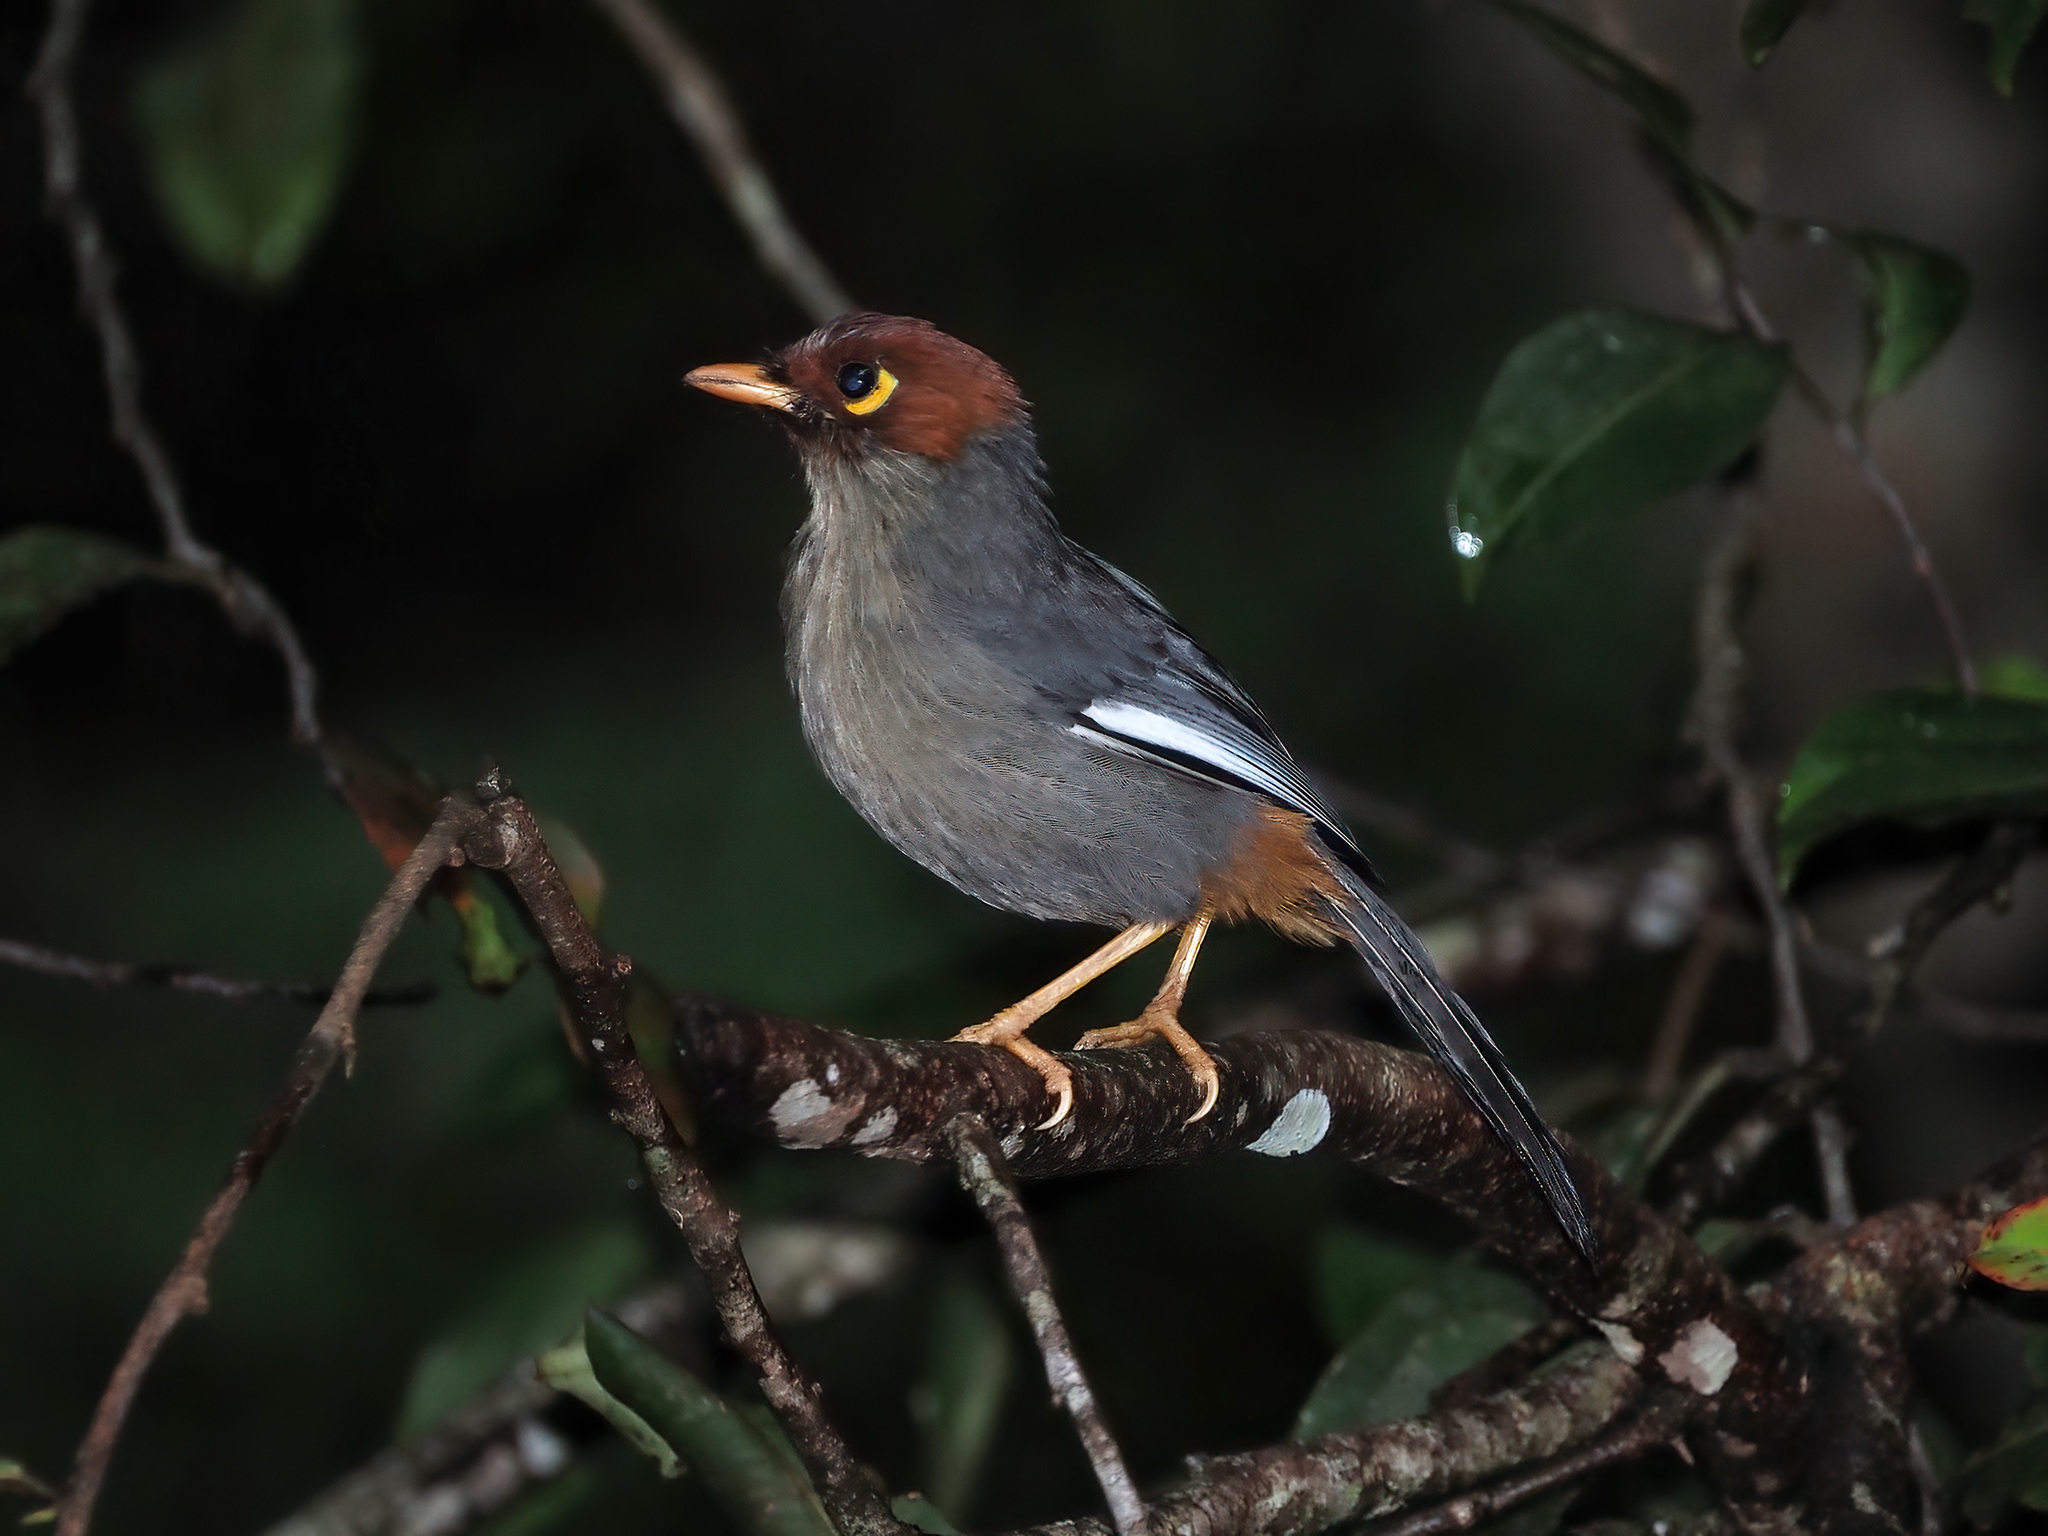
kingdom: Animalia
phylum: Chordata
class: Aves
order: Passeriformes
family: Leiothrichidae
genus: Garrulax
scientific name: Garrulax treacheri
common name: Chestnut-hooded laughingthrush
